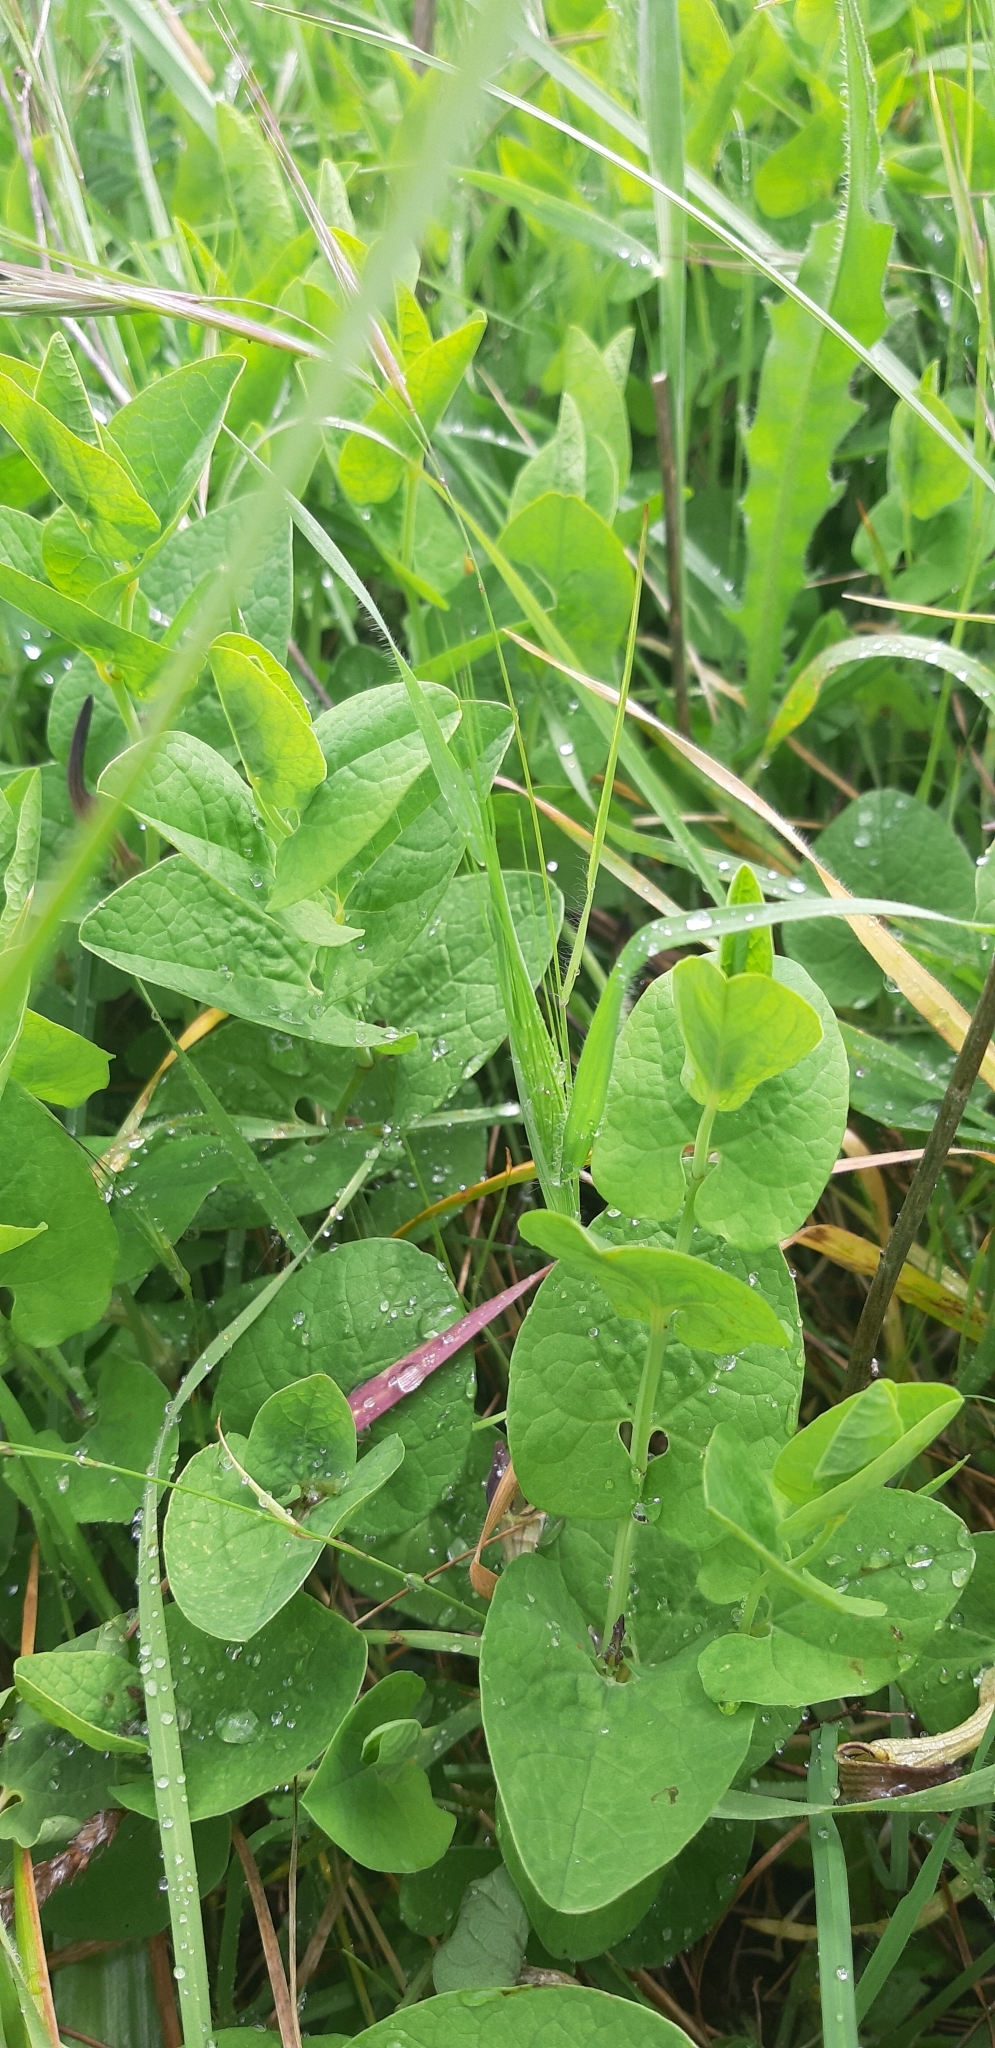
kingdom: Plantae
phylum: Tracheophyta
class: Magnoliopsida
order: Piperales
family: Aristolochiaceae
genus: Aristolochia
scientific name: Aristolochia clusii
